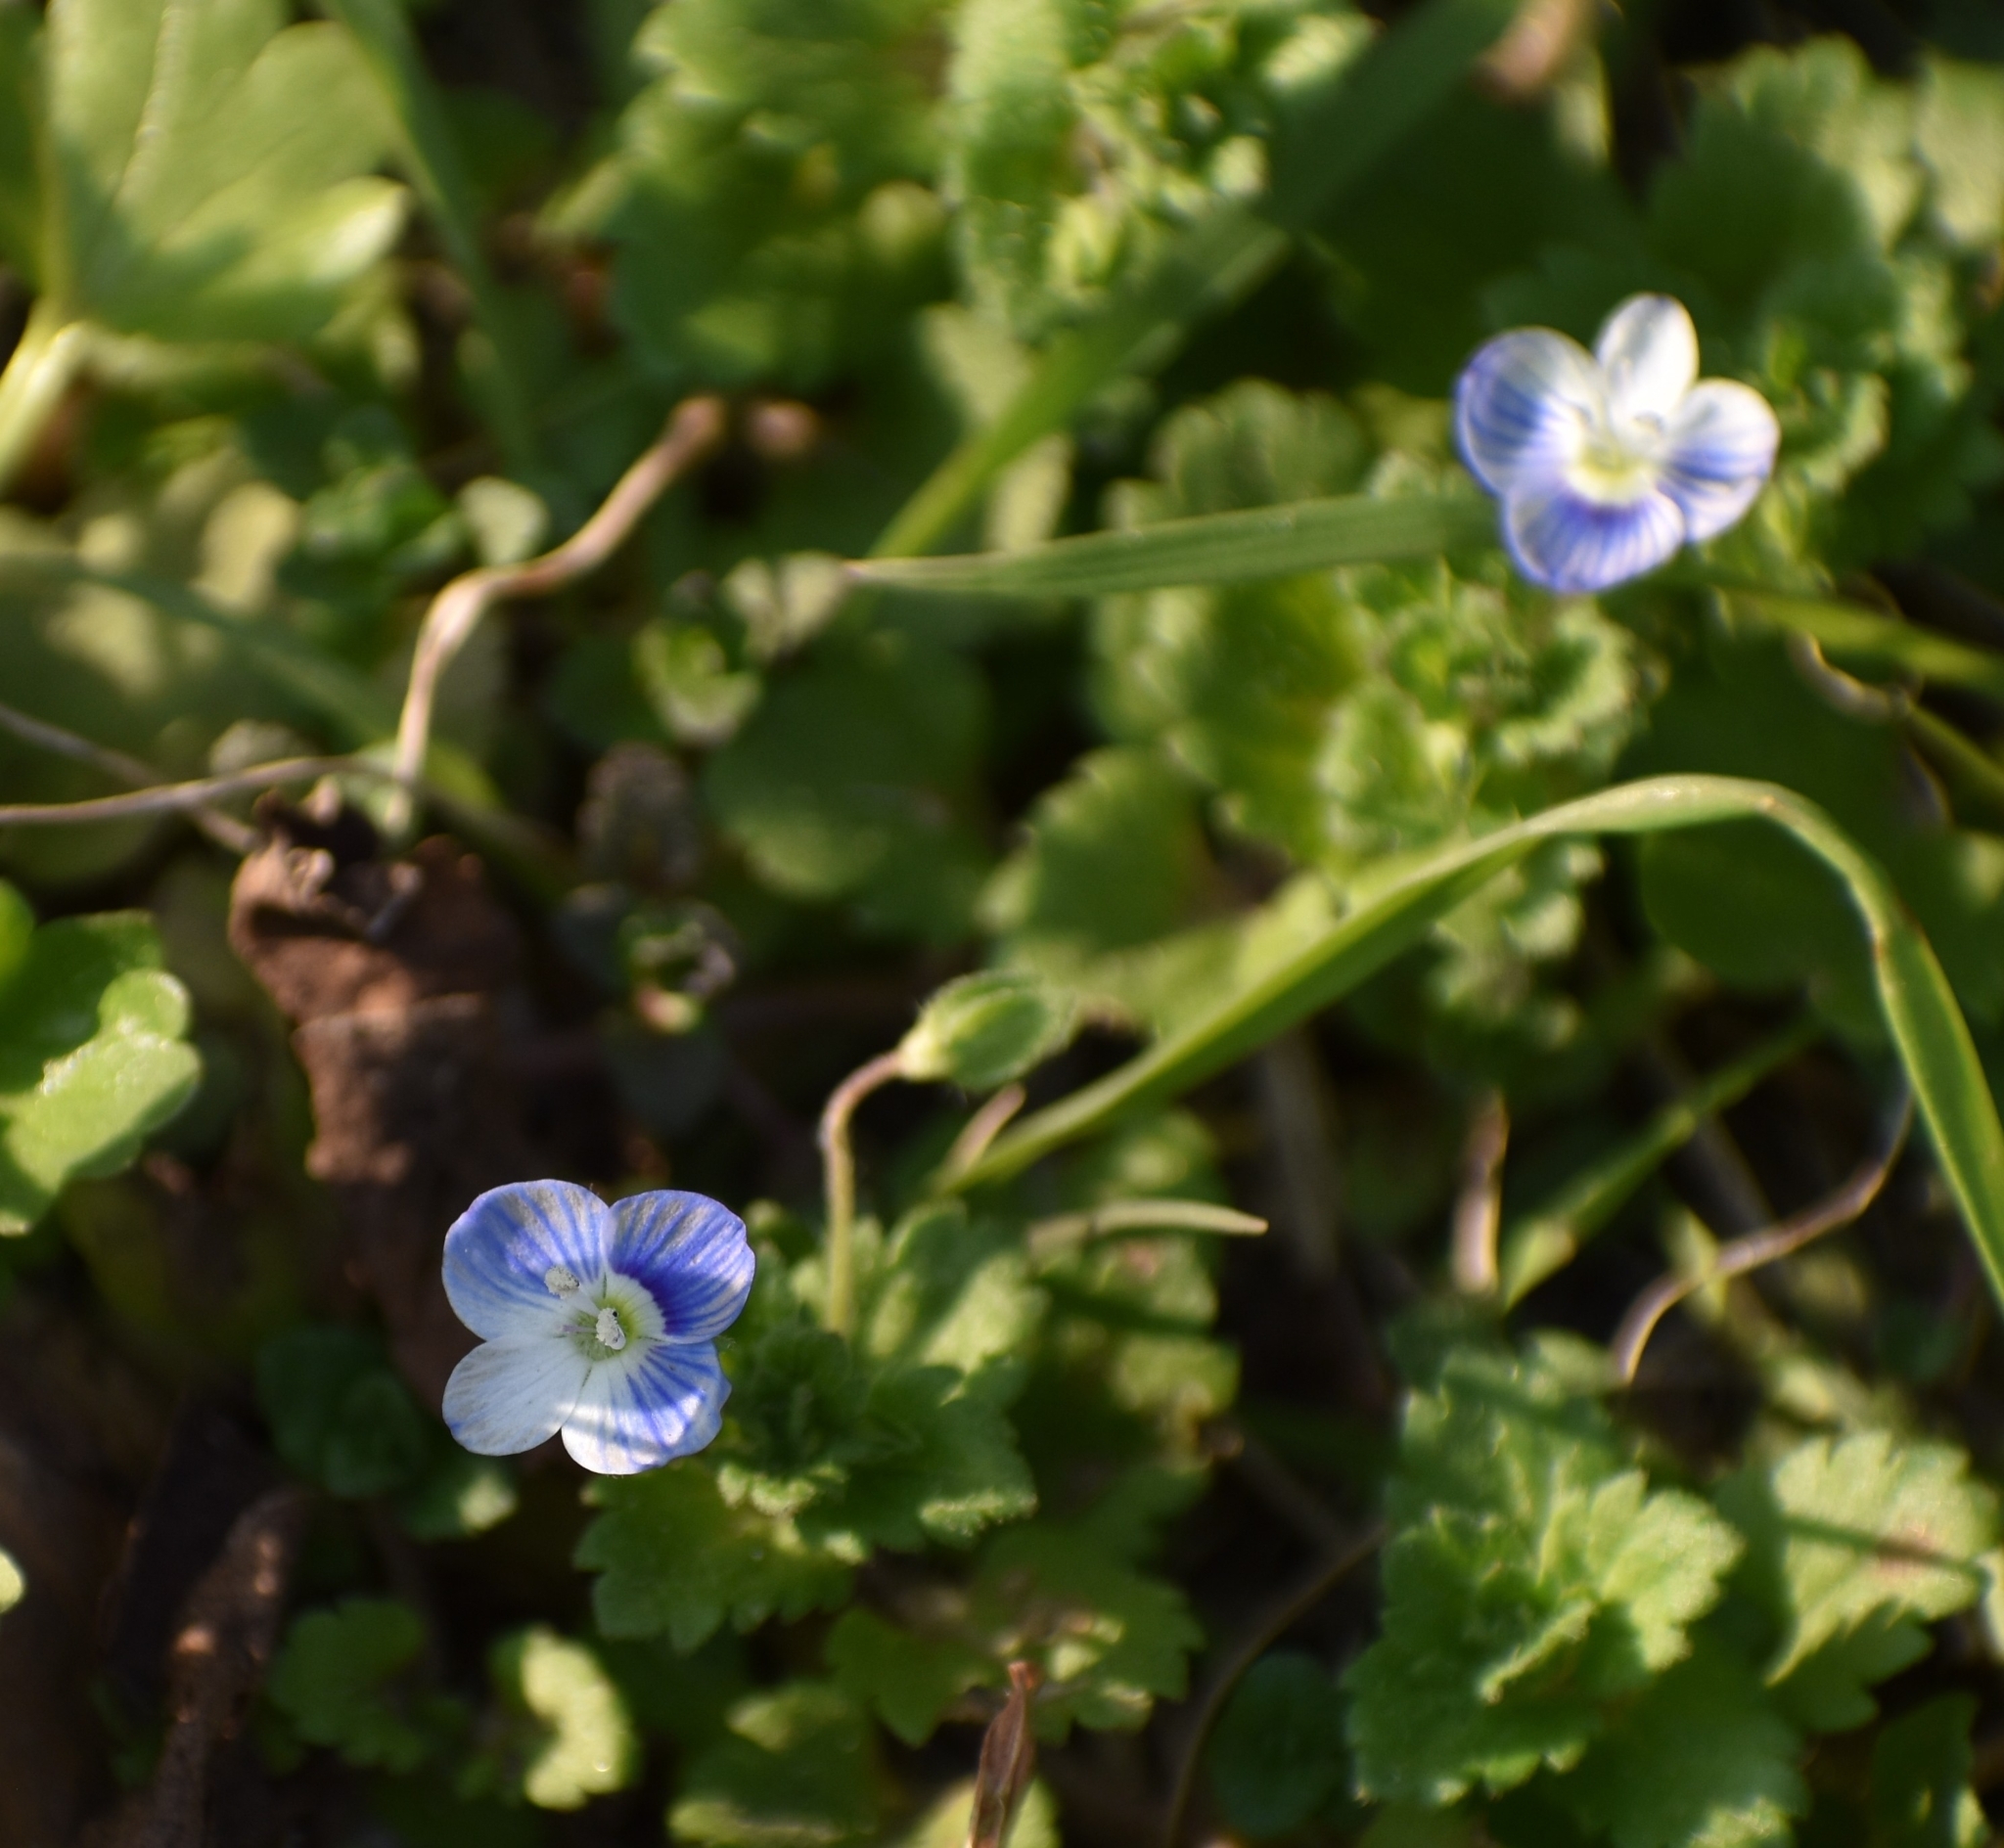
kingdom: Plantae
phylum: Tracheophyta
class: Magnoliopsida
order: Lamiales
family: Plantaginaceae
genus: Veronica
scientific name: Veronica persica
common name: Common field-speedwell
